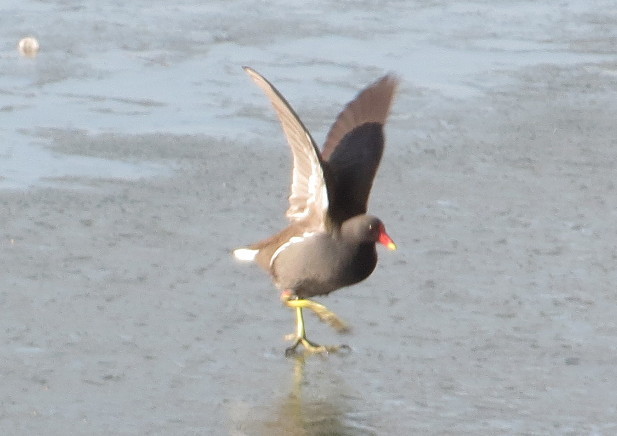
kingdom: Animalia
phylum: Chordata
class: Aves
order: Gruiformes
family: Rallidae
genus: Gallinula
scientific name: Gallinula chloropus
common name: Common moorhen
